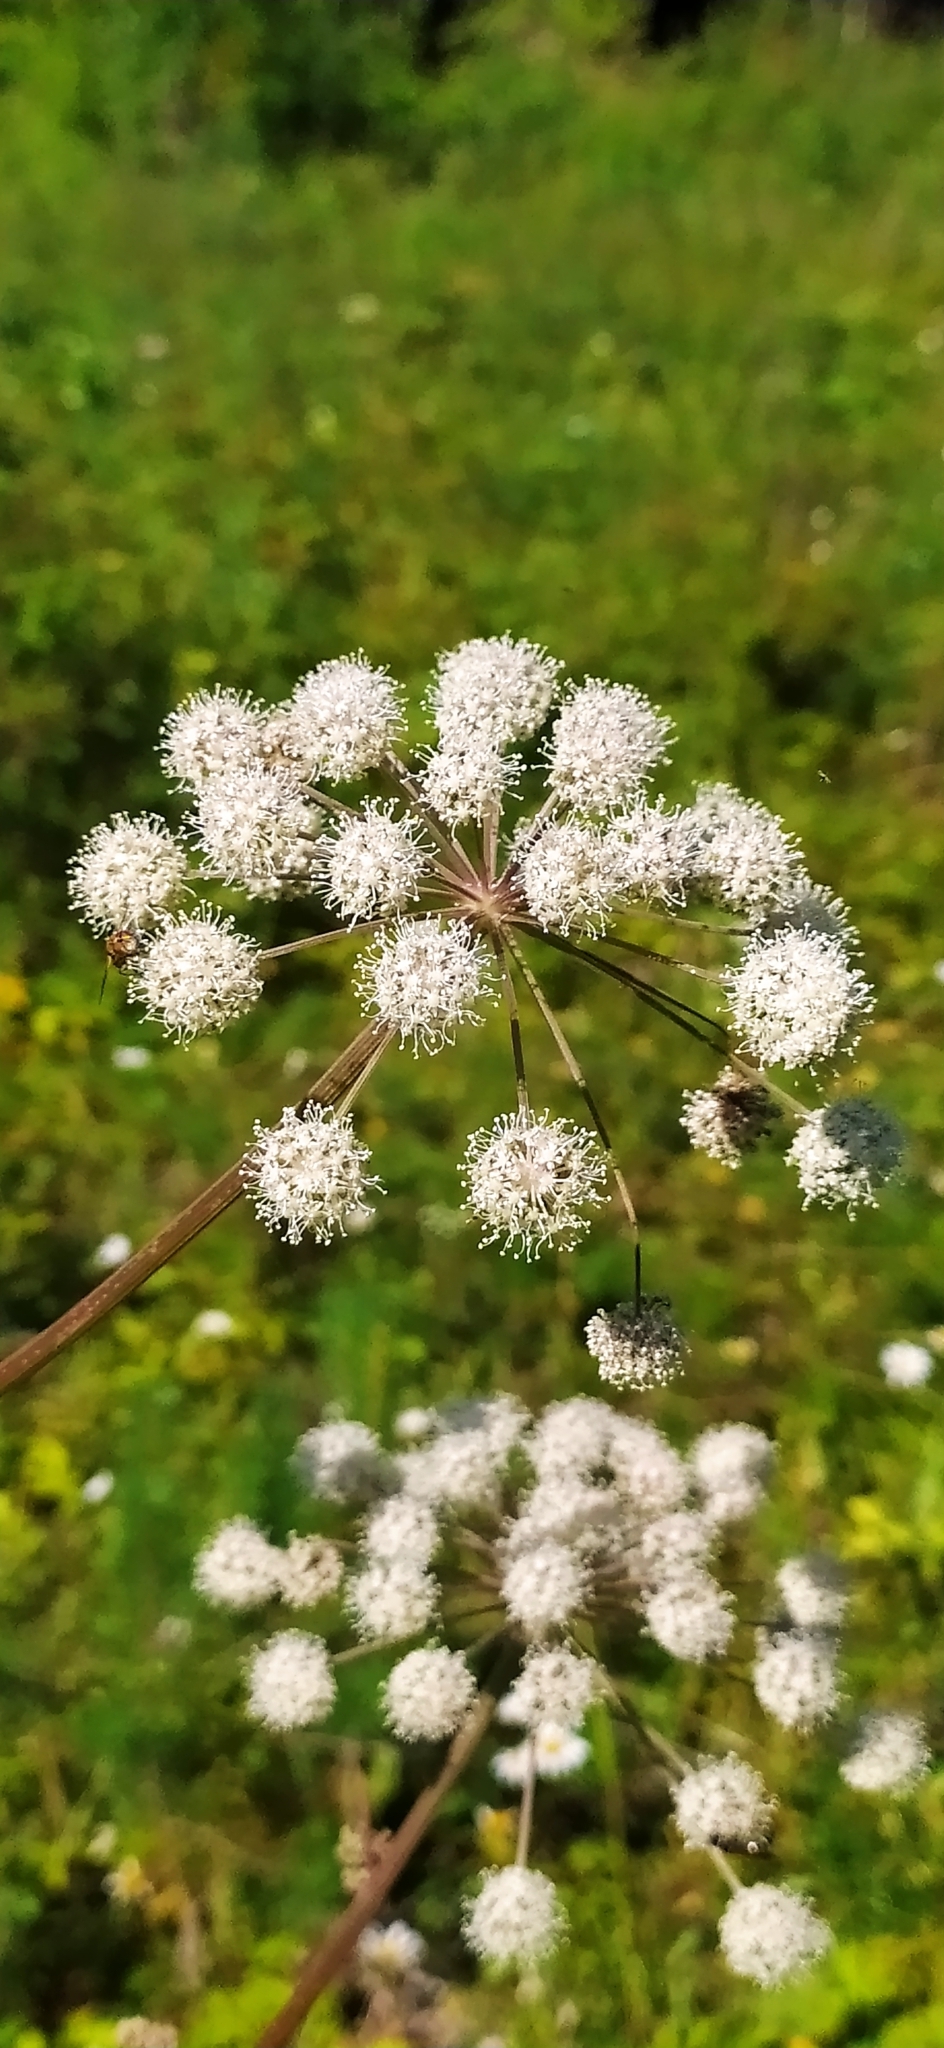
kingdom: Plantae
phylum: Tracheophyta
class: Magnoliopsida
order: Apiales
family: Apiaceae
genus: Angelica
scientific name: Angelica sylvestris
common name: Wild angelica
